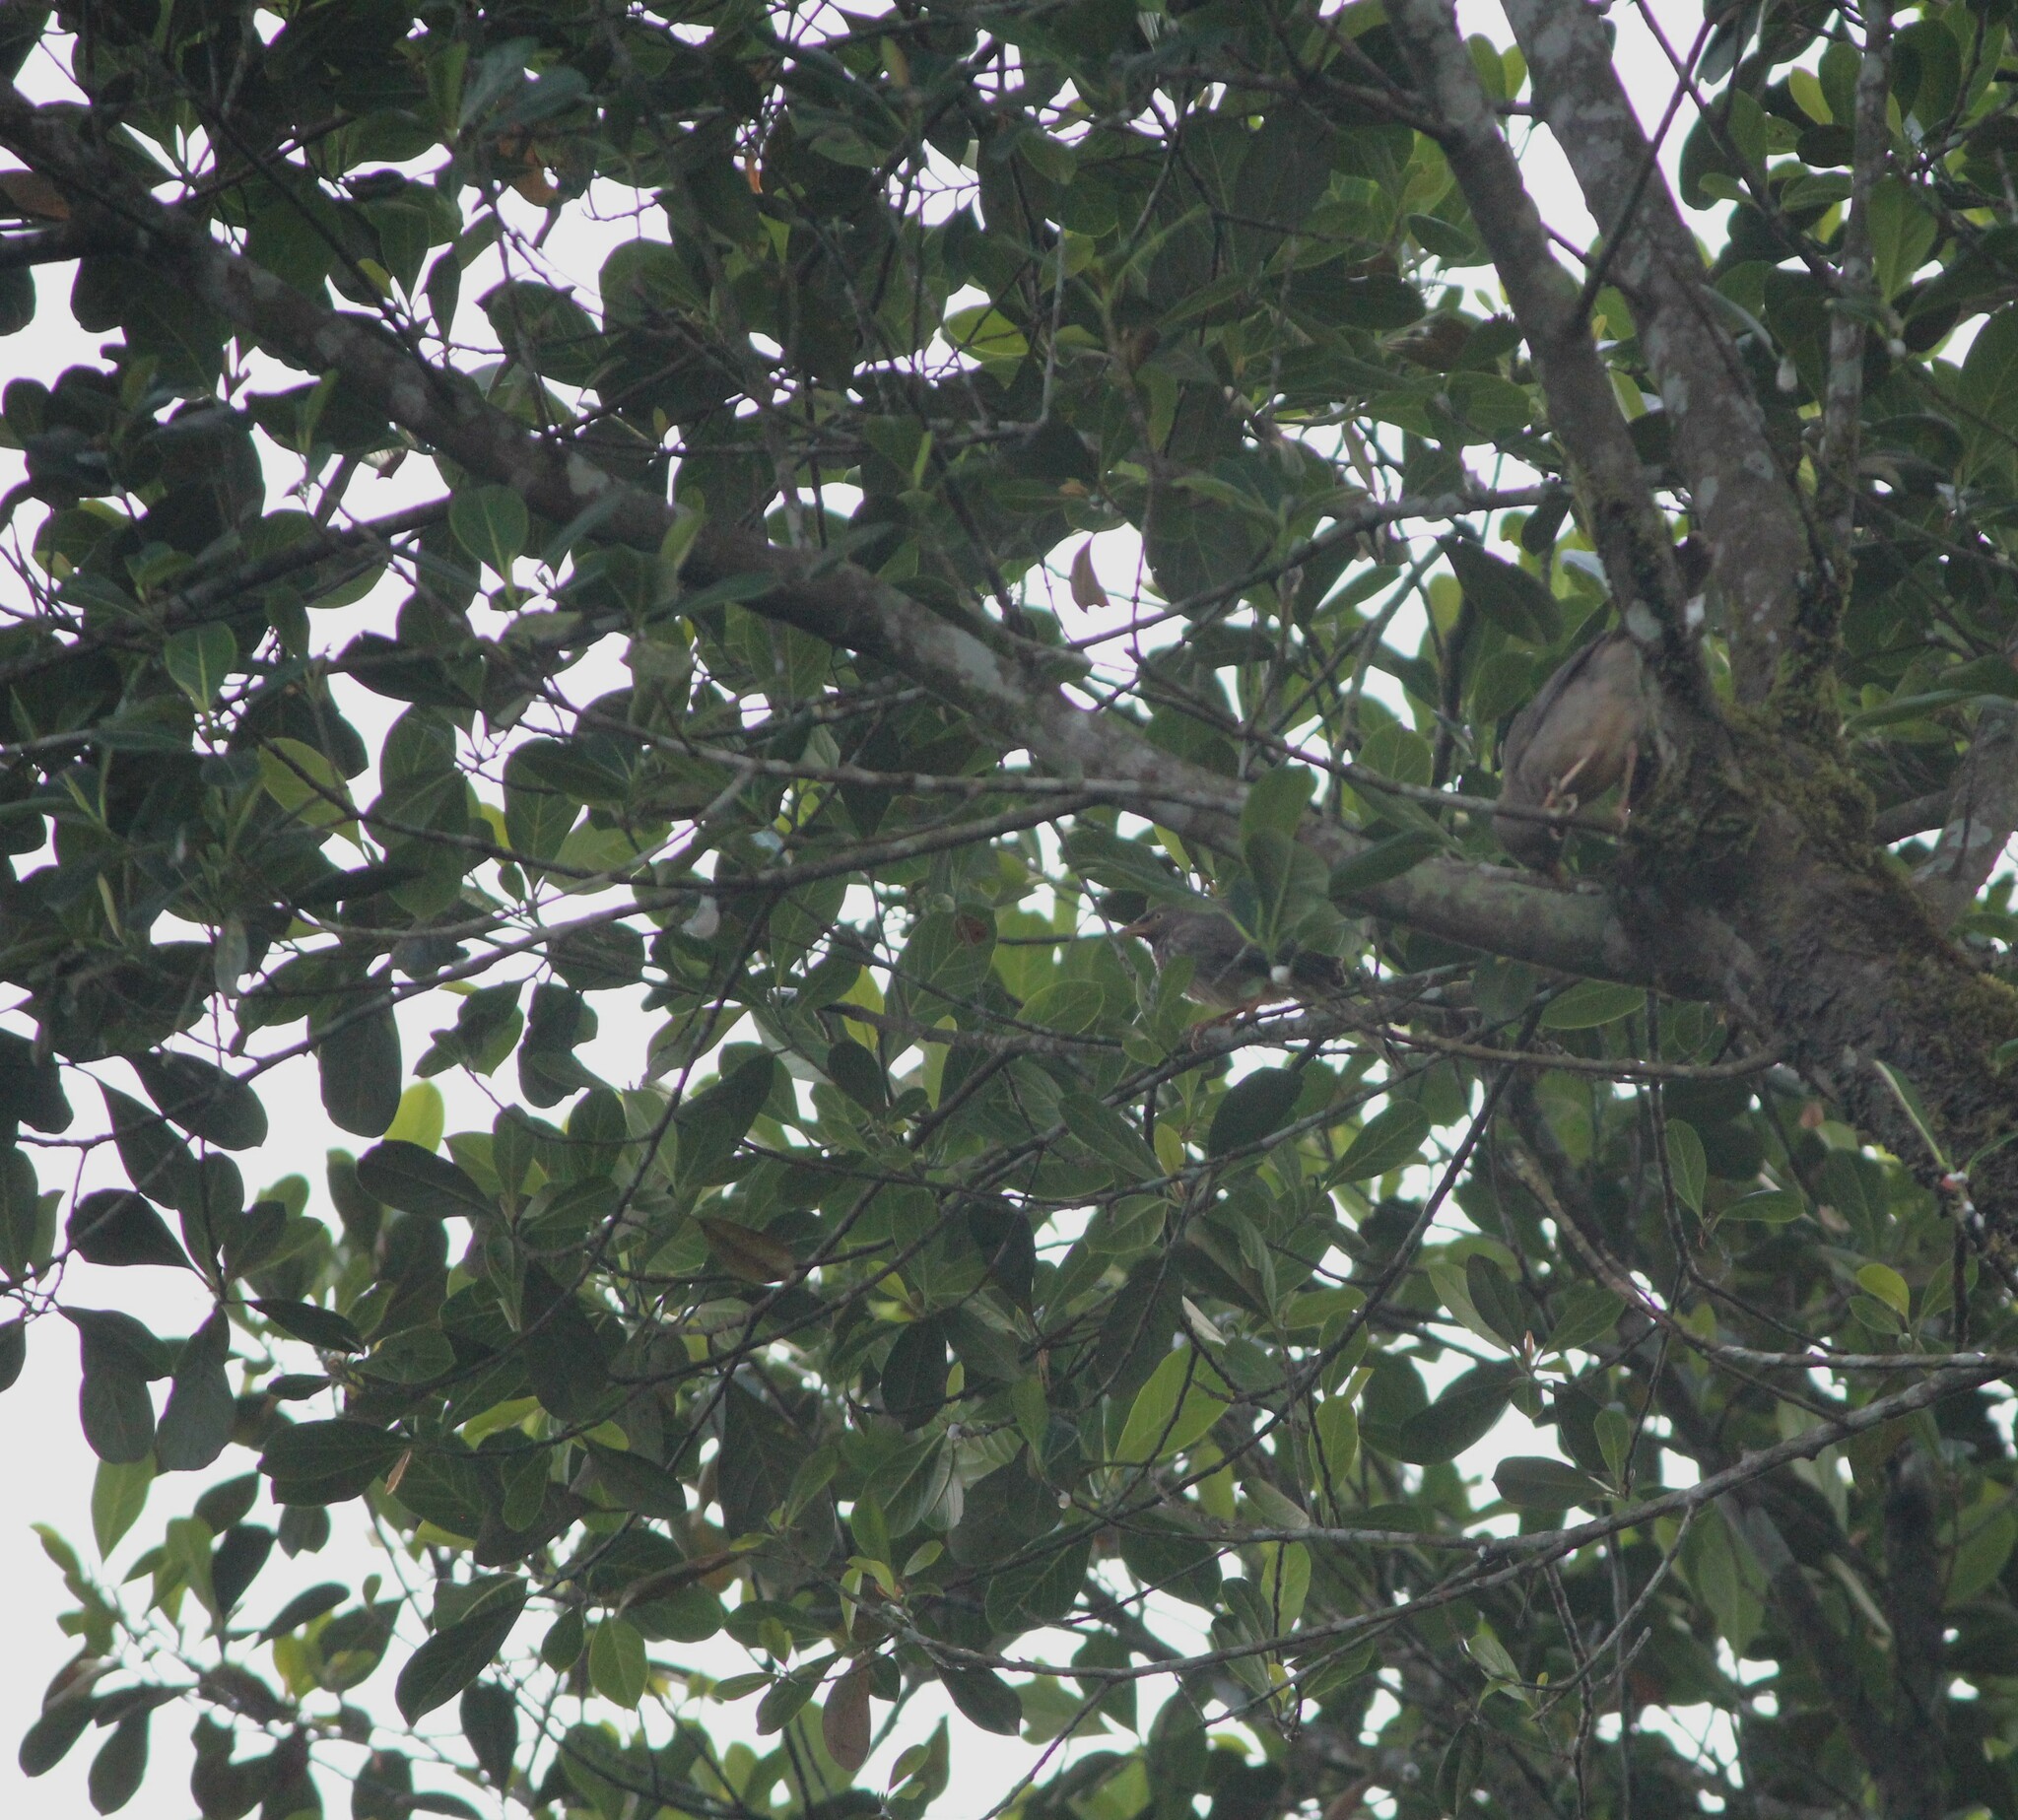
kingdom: Plantae
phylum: Tracheophyta
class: Magnoliopsida
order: Rosales
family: Moraceae
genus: Artocarpus
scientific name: Artocarpus heterophyllus
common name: Jackfruit
